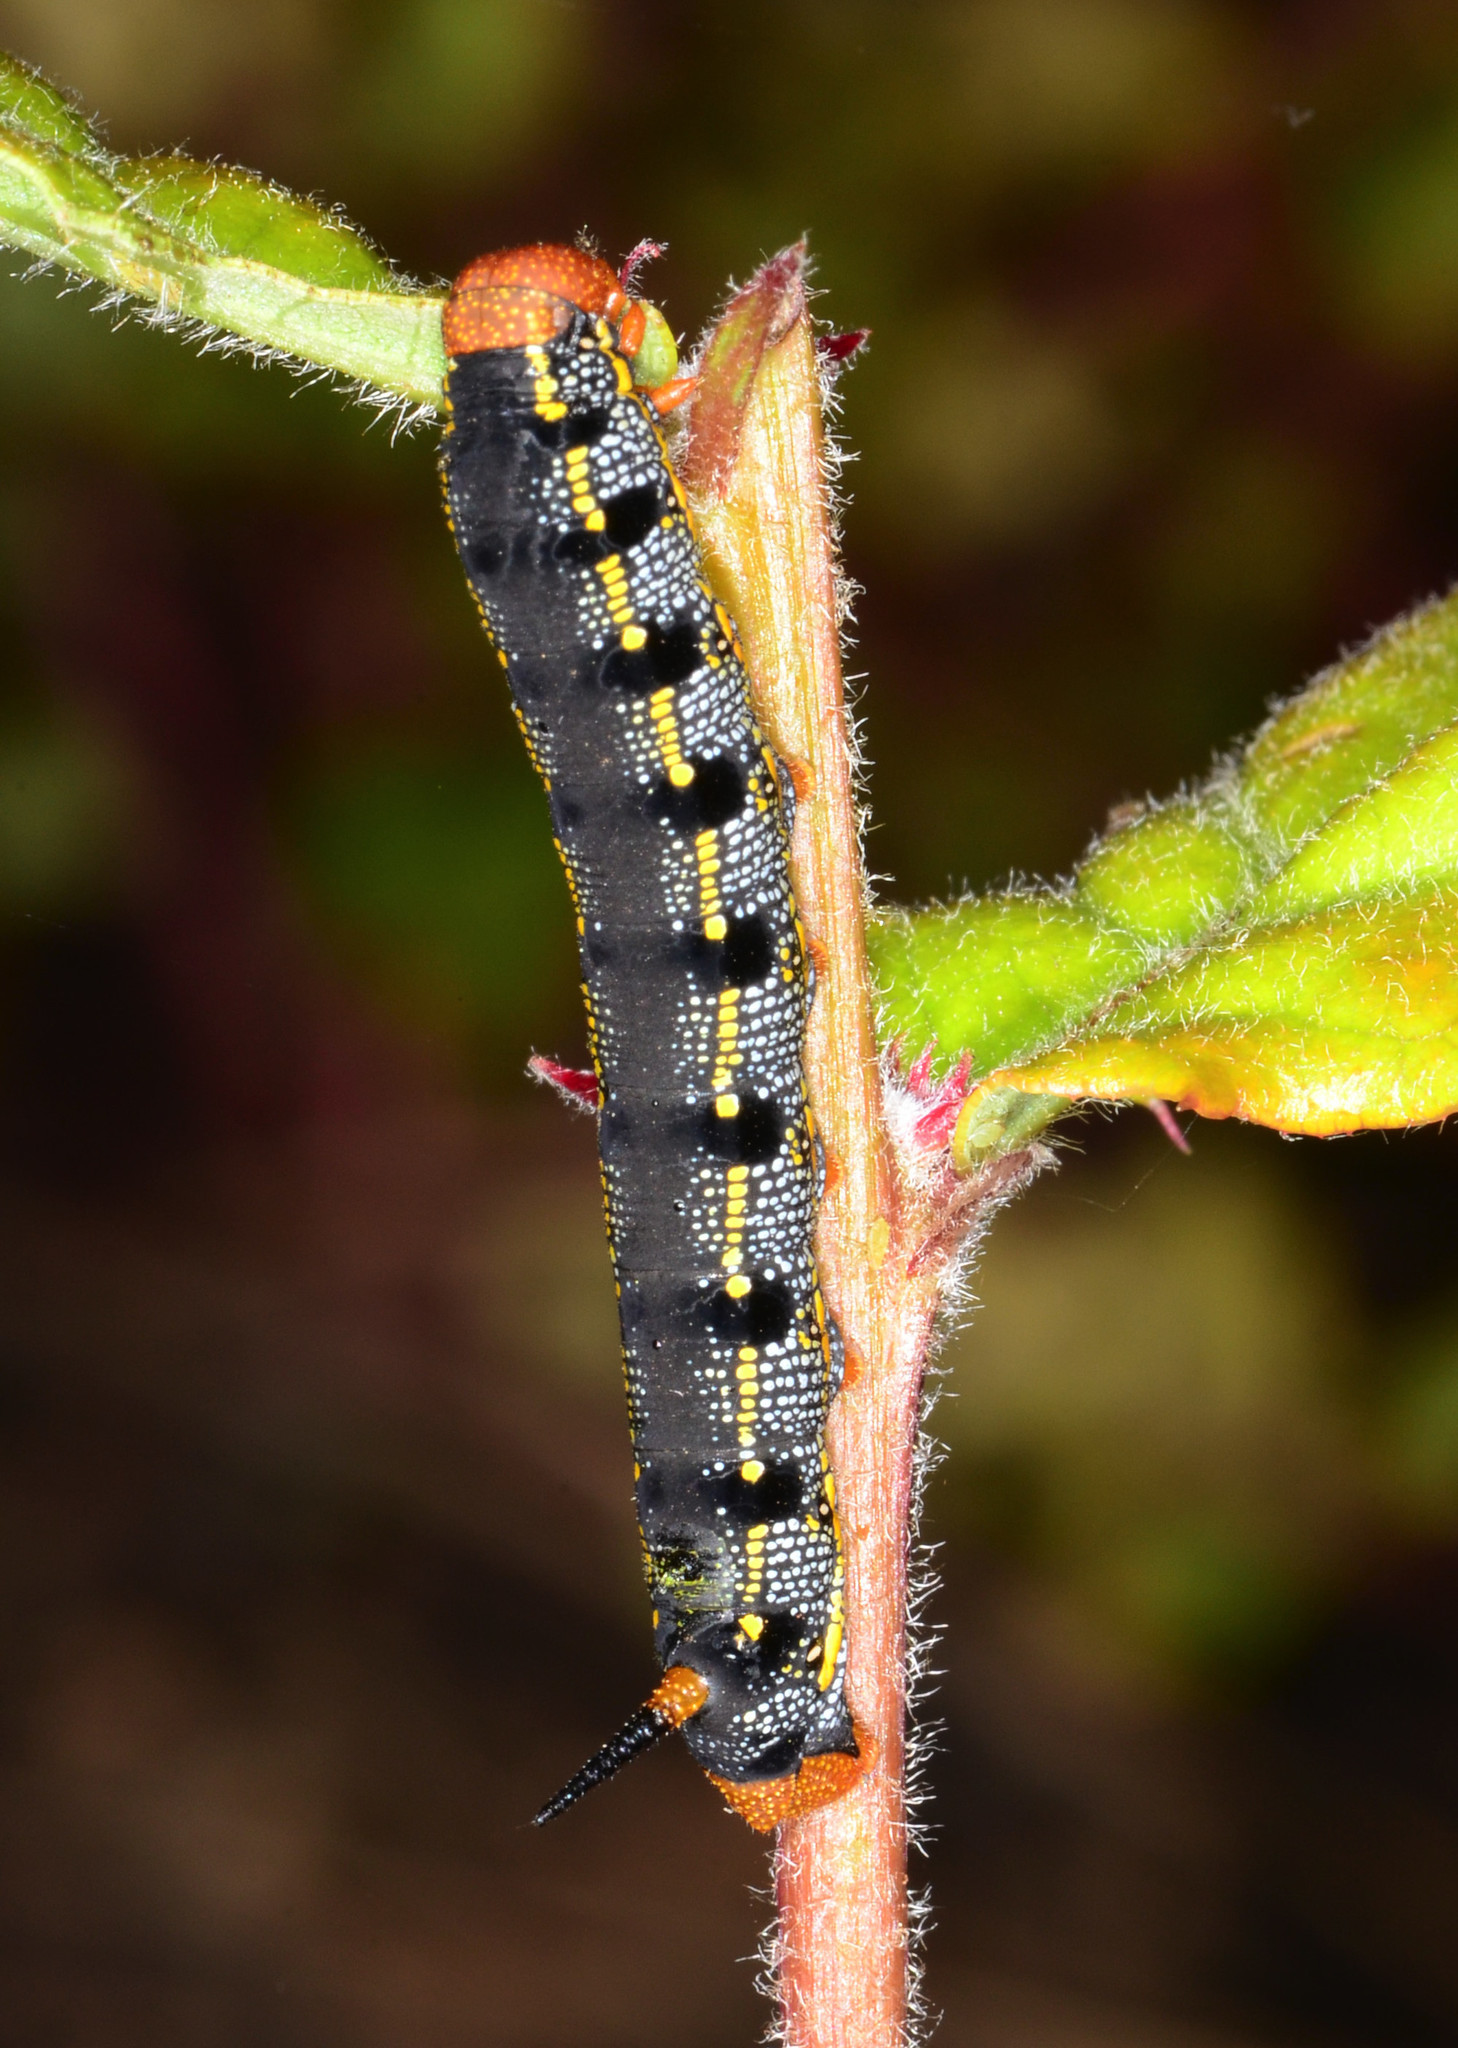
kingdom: Animalia
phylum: Arthropoda
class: Insecta
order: Lepidoptera
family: Sphingidae
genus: Hyles
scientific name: Hyles lineata
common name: White-lined sphinx
